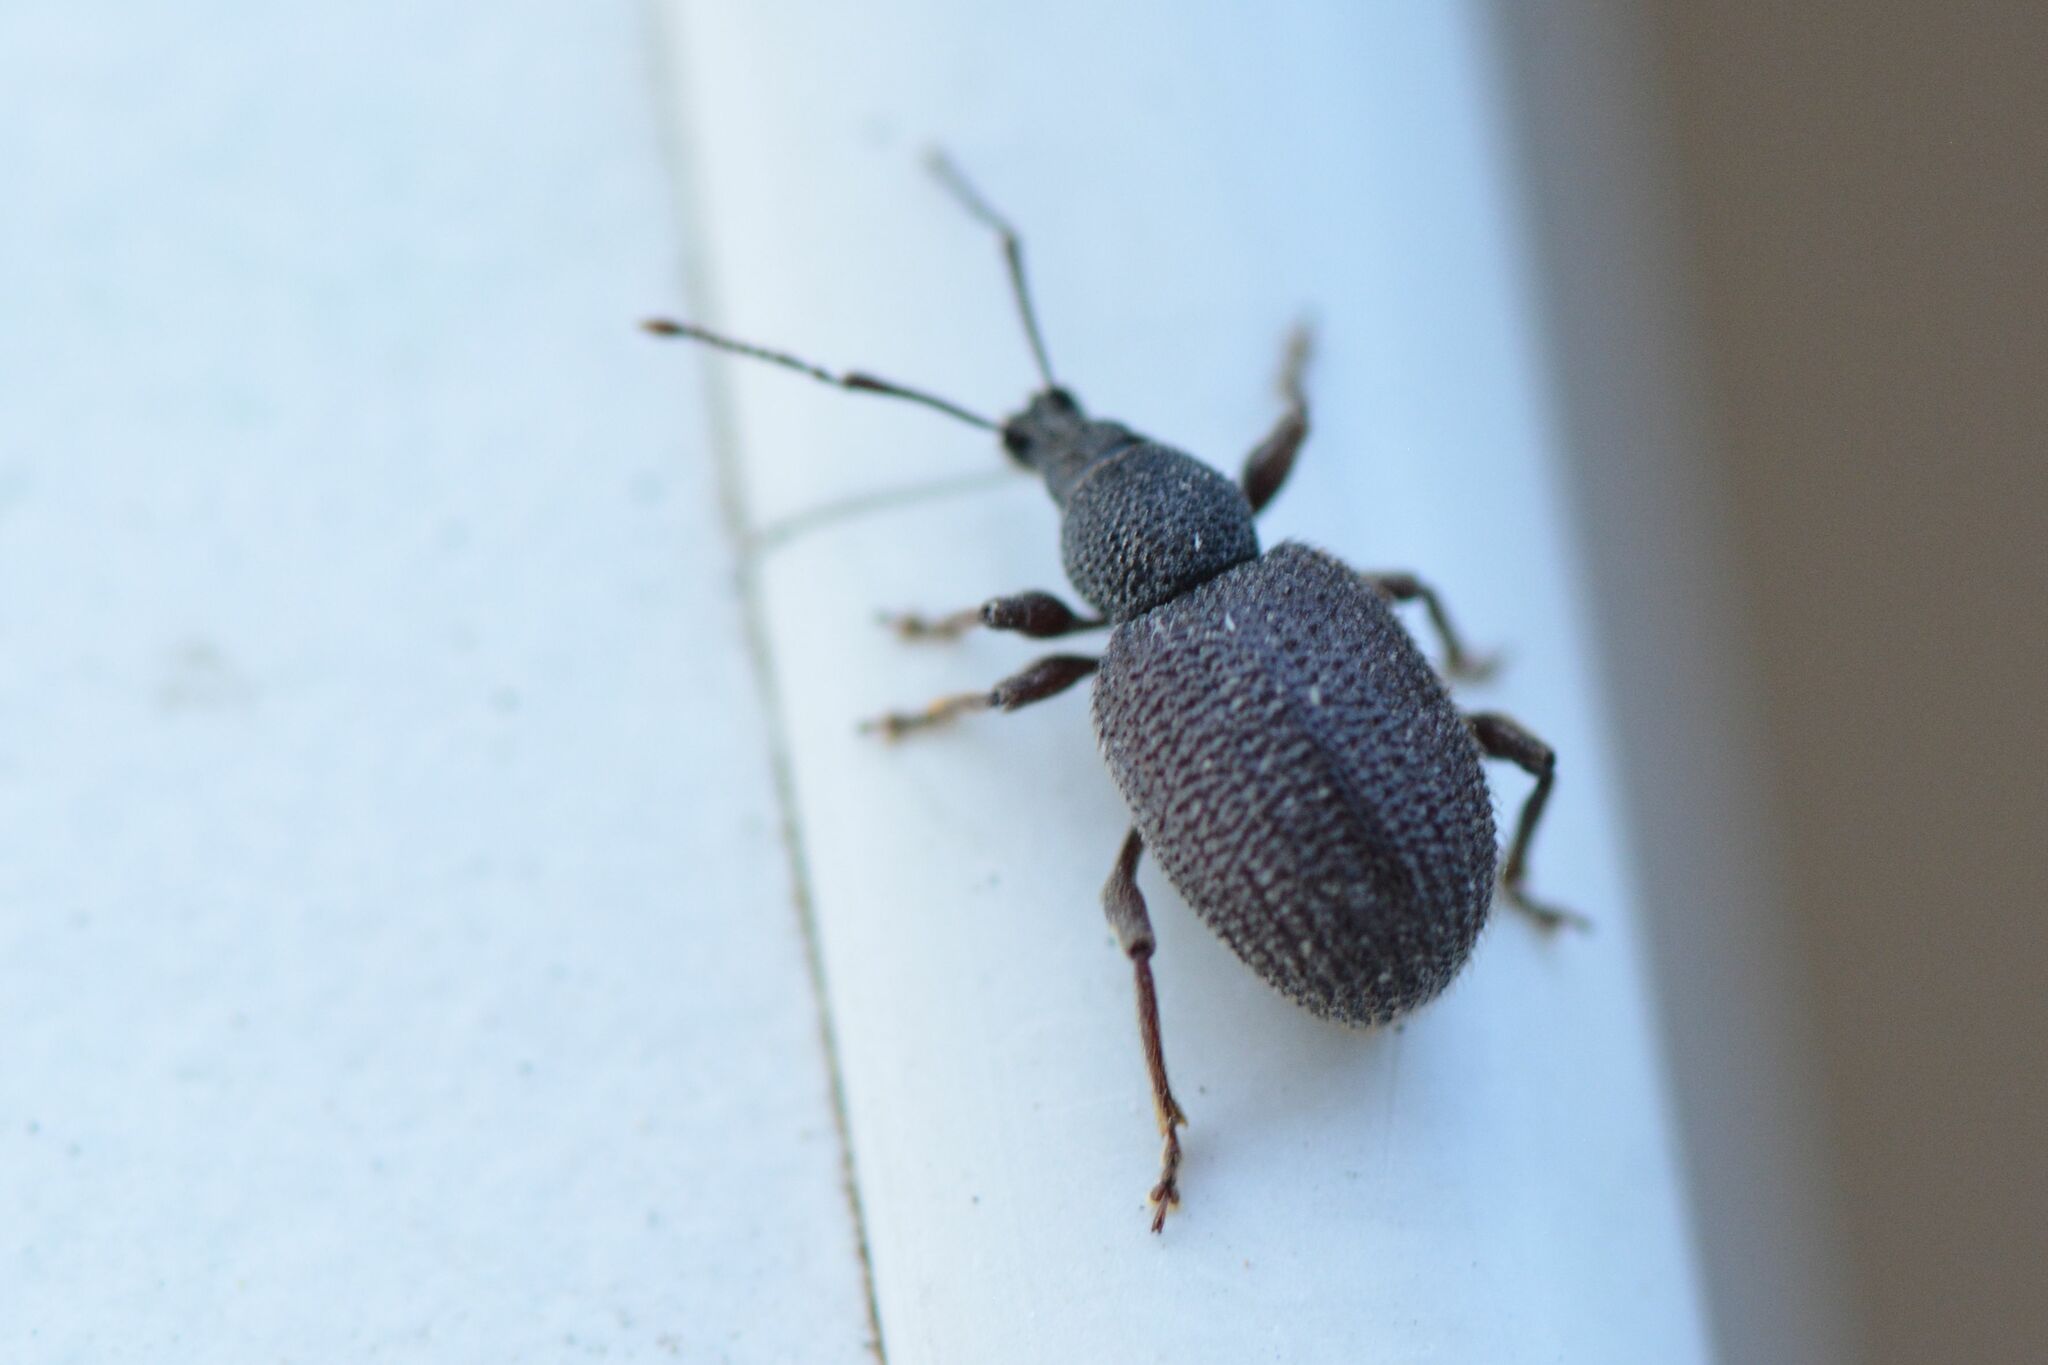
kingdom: Animalia
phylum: Arthropoda
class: Insecta
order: Coleoptera
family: Curculionidae
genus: Otiorhynchus
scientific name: Otiorhynchus rugosostriatus
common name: Weevil
